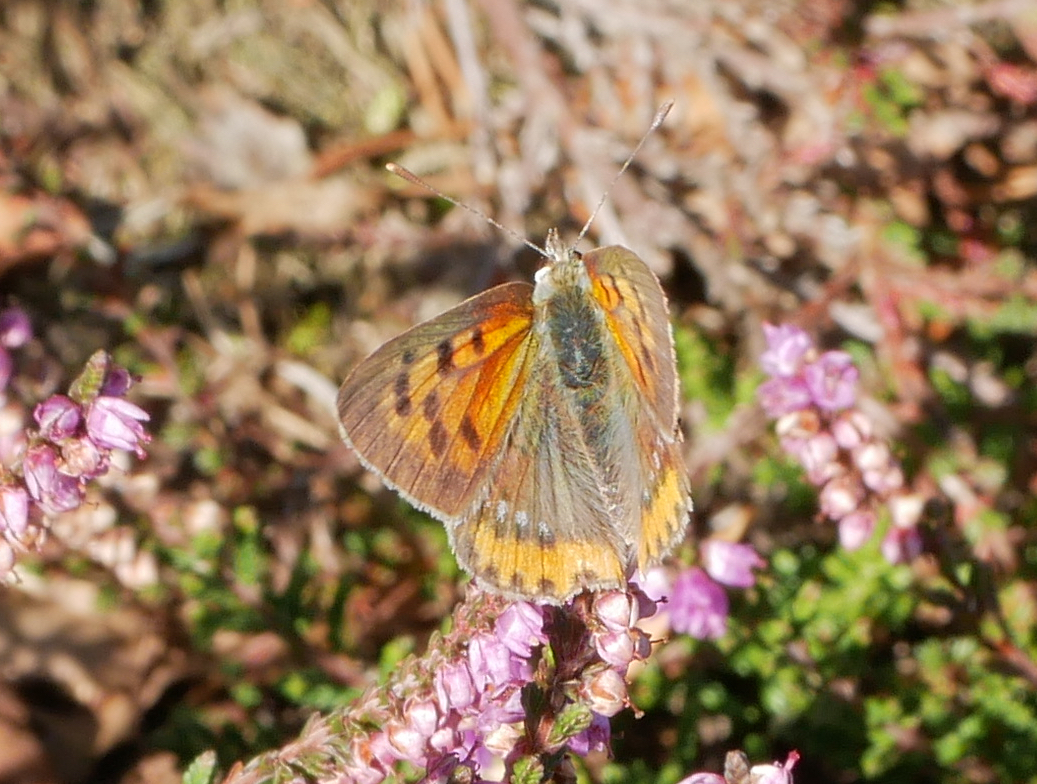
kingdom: Animalia
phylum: Arthropoda
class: Insecta
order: Lepidoptera
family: Lycaenidae
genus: Lycaena
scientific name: Lycaena phlaeas
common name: Small copper
